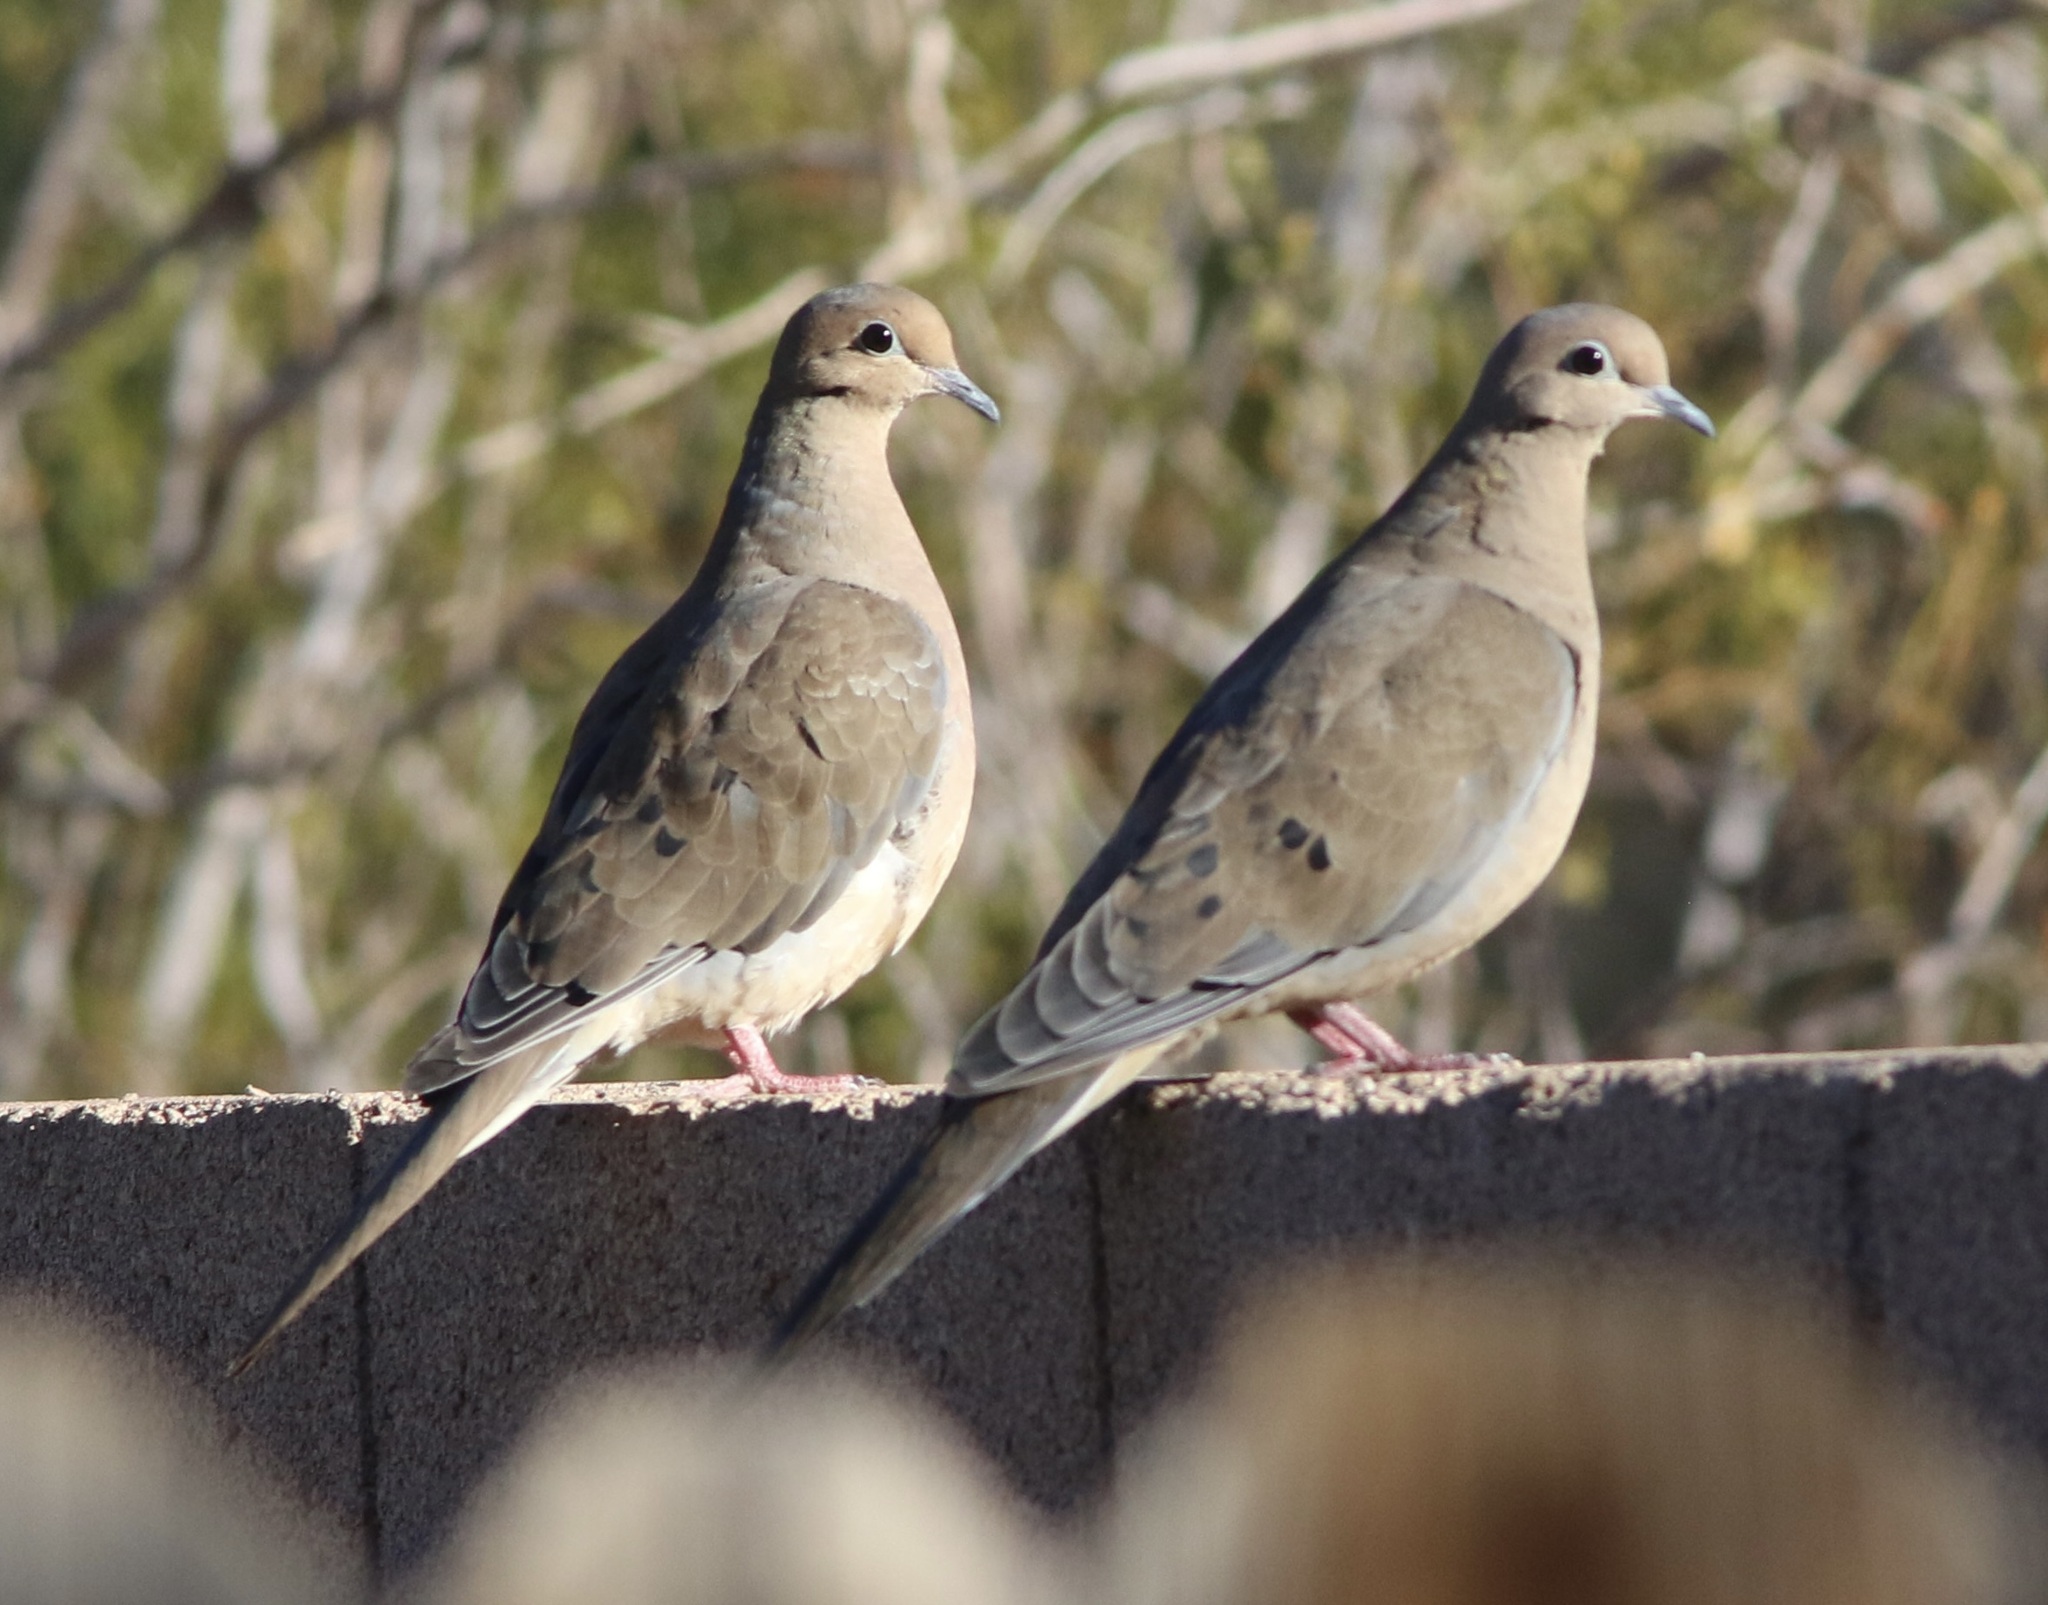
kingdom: Animalia
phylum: Chordata
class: Aves
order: Columbiformes
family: Columbidae
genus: Zenaida
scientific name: Zenaida macroura
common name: Mourning dove
